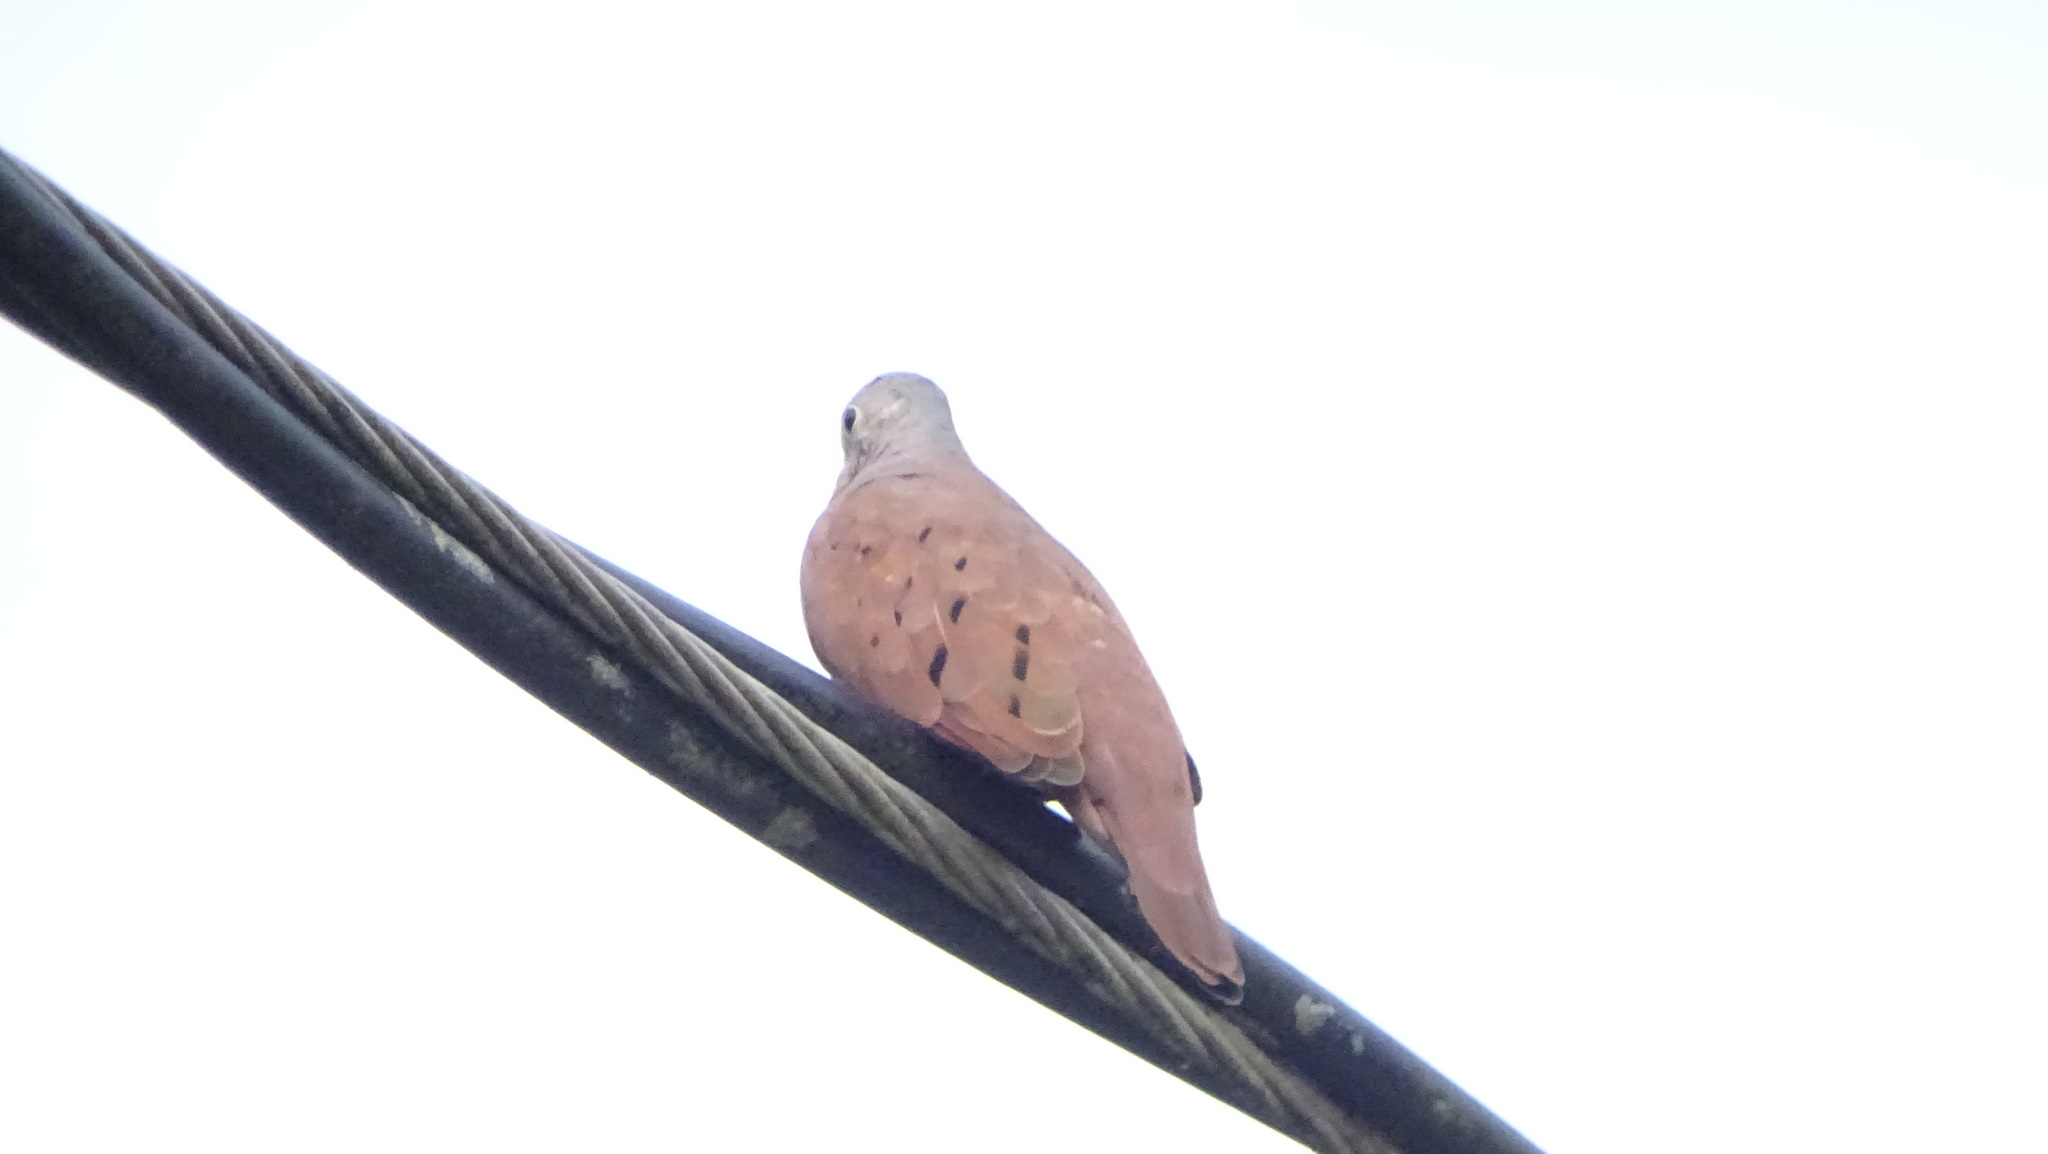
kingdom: Animalia
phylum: Chordata
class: Aves
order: Columbiformes
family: Columbidae
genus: Columbina
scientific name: Columbina talpacoti
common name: Ruddy ground dove
